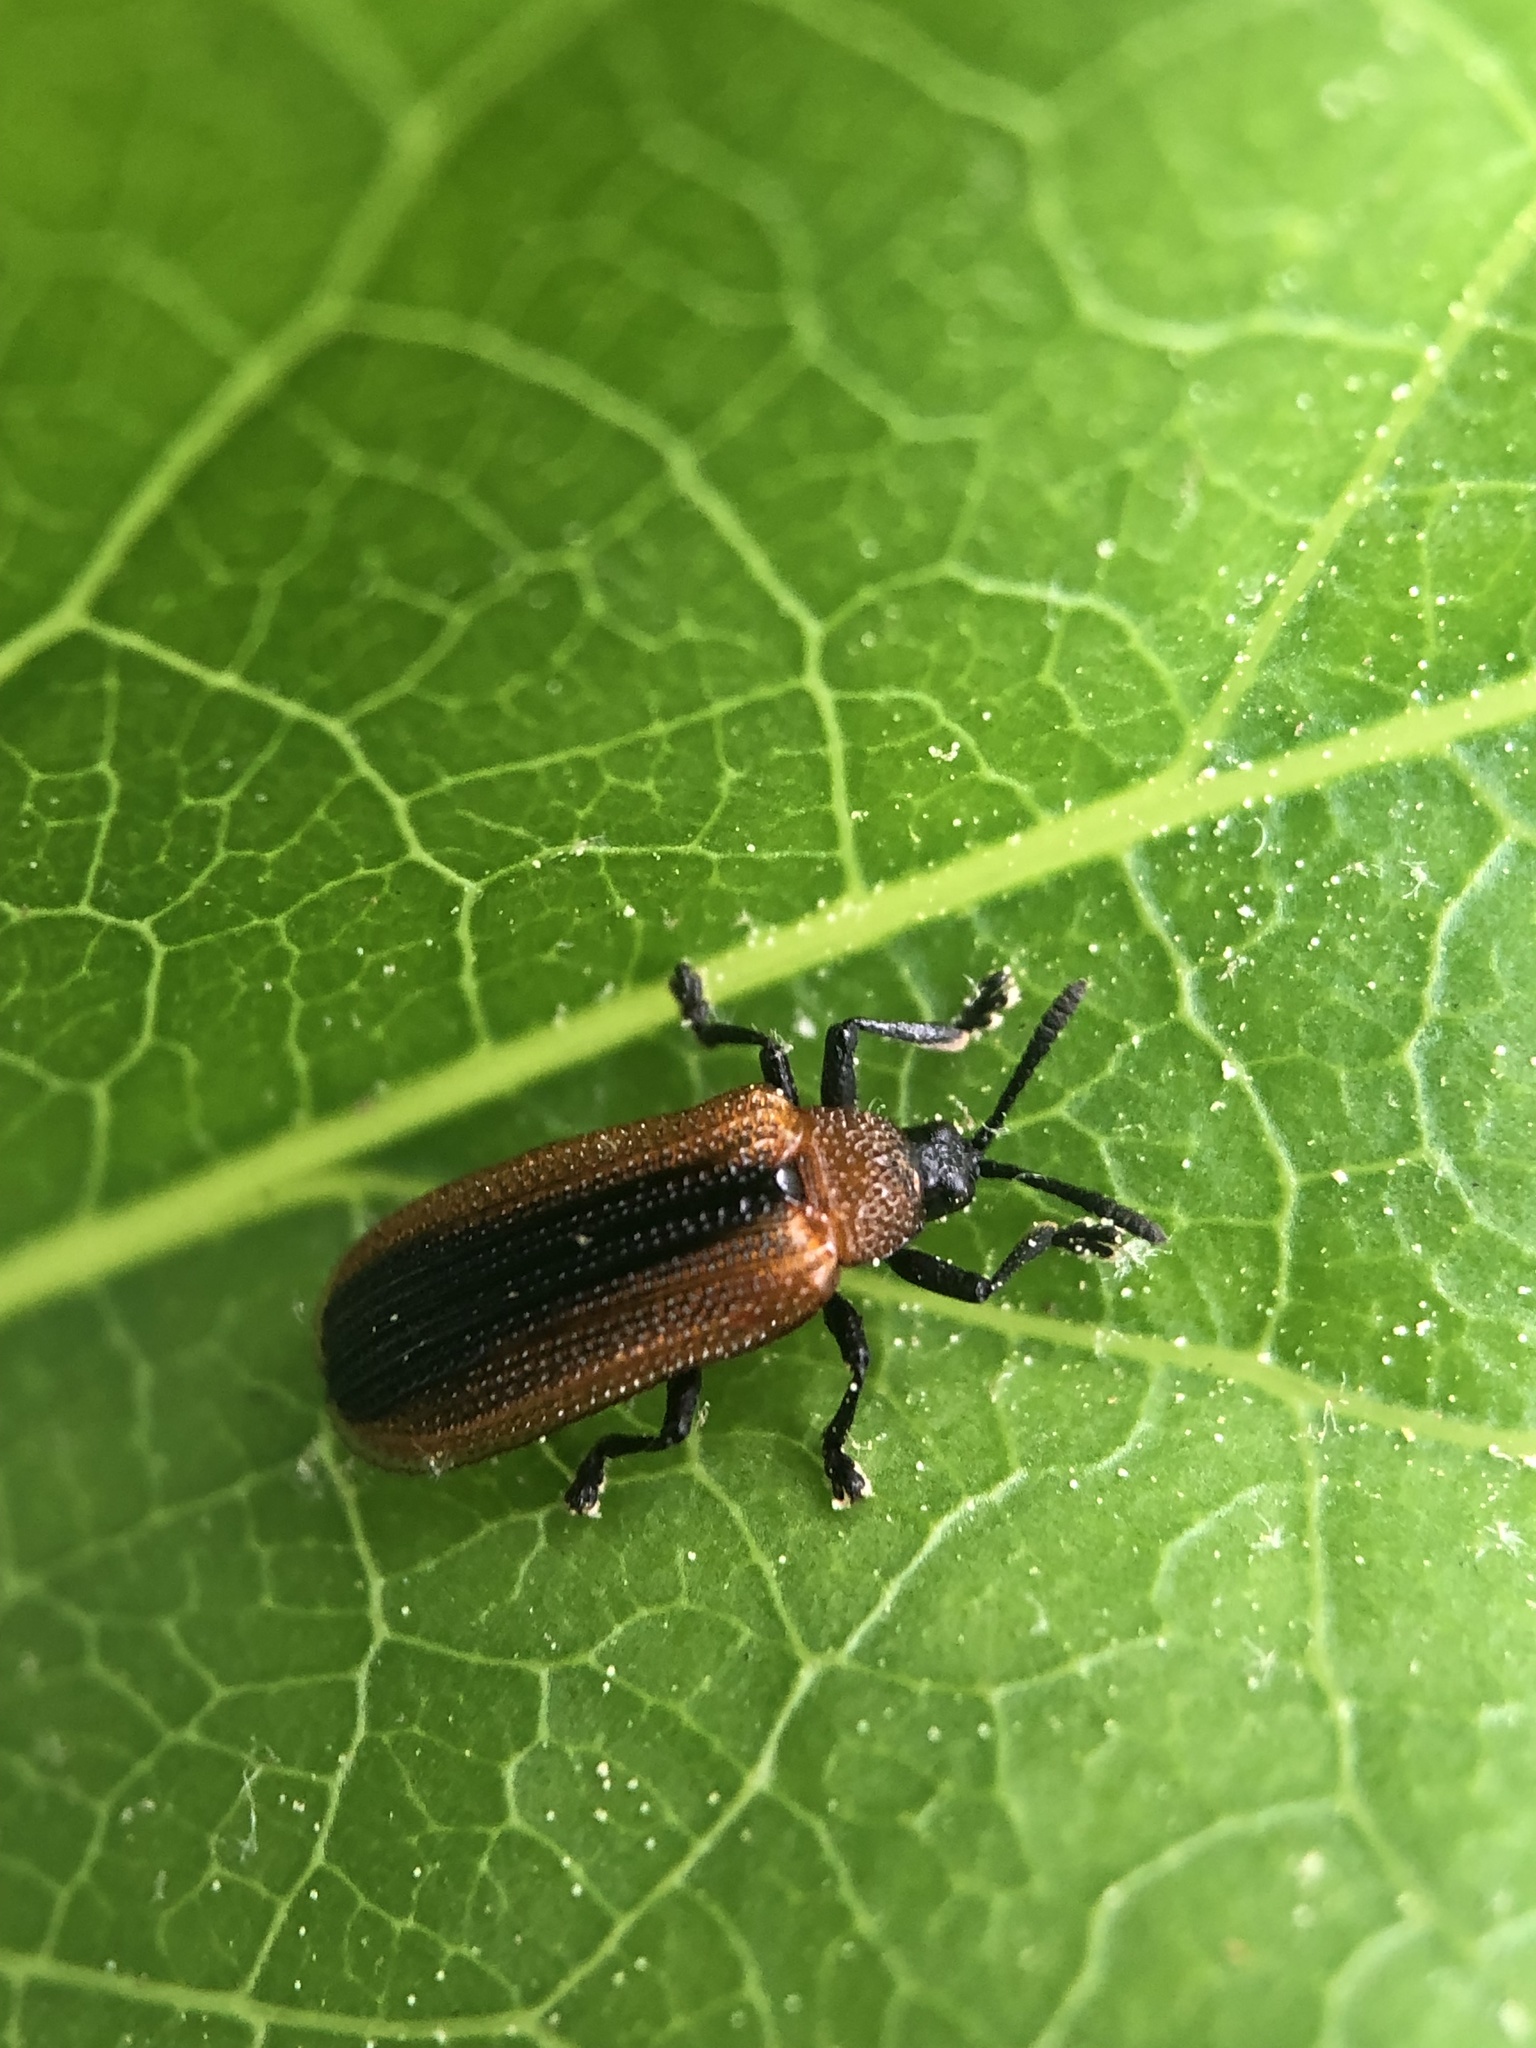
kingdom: Animalia
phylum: Arthropoda
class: Insecta
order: Coleoptera
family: Chrysomelidae
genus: Odontota
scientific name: Odontota dorsalis
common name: Locust leaf-miner beetle
